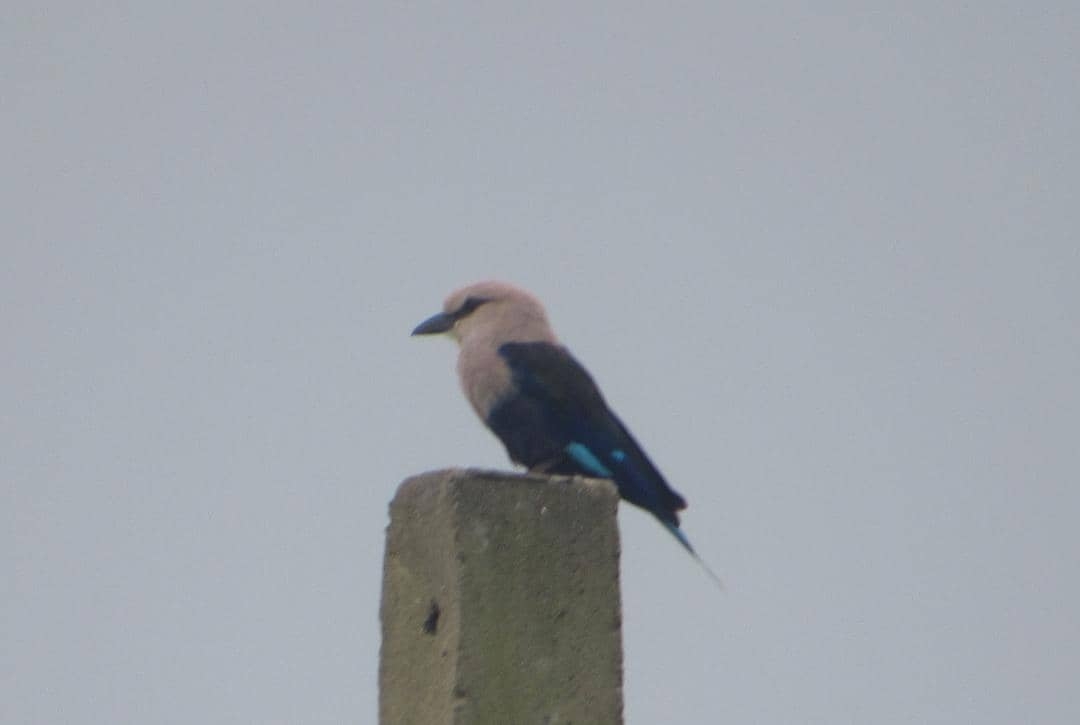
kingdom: Animalia
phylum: Chordata
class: Aves
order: Coraciiformes
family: Coraciidae
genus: Coracias
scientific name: Coracias cyanogaster
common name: Blue-bellied roller
